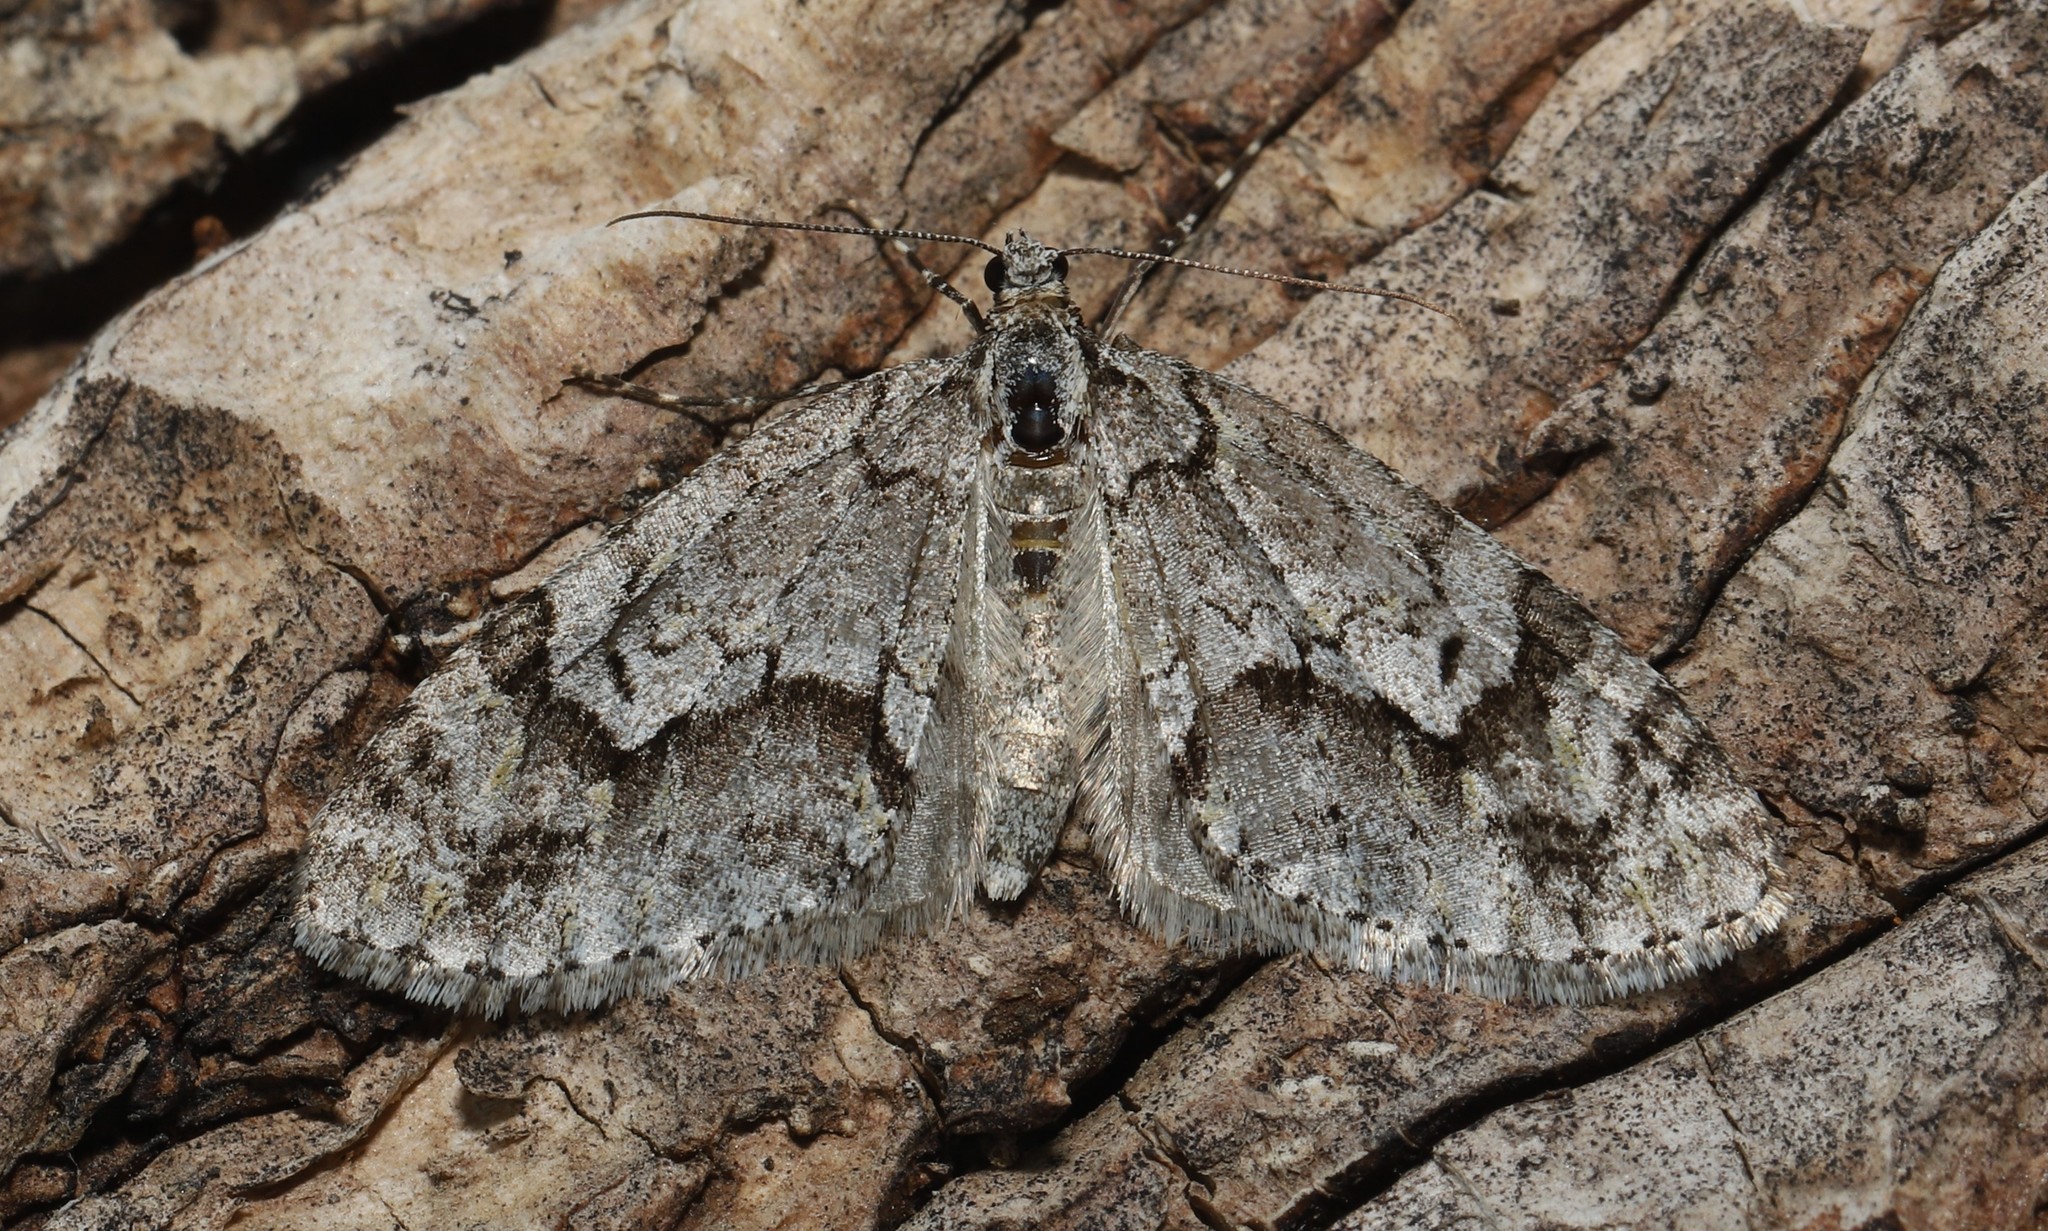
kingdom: Animalia
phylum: Arthropoda
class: Insecta
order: Lepidoptera
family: Geometridae
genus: Cladara
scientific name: Cladara limitaria
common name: Mottled gray carpet
